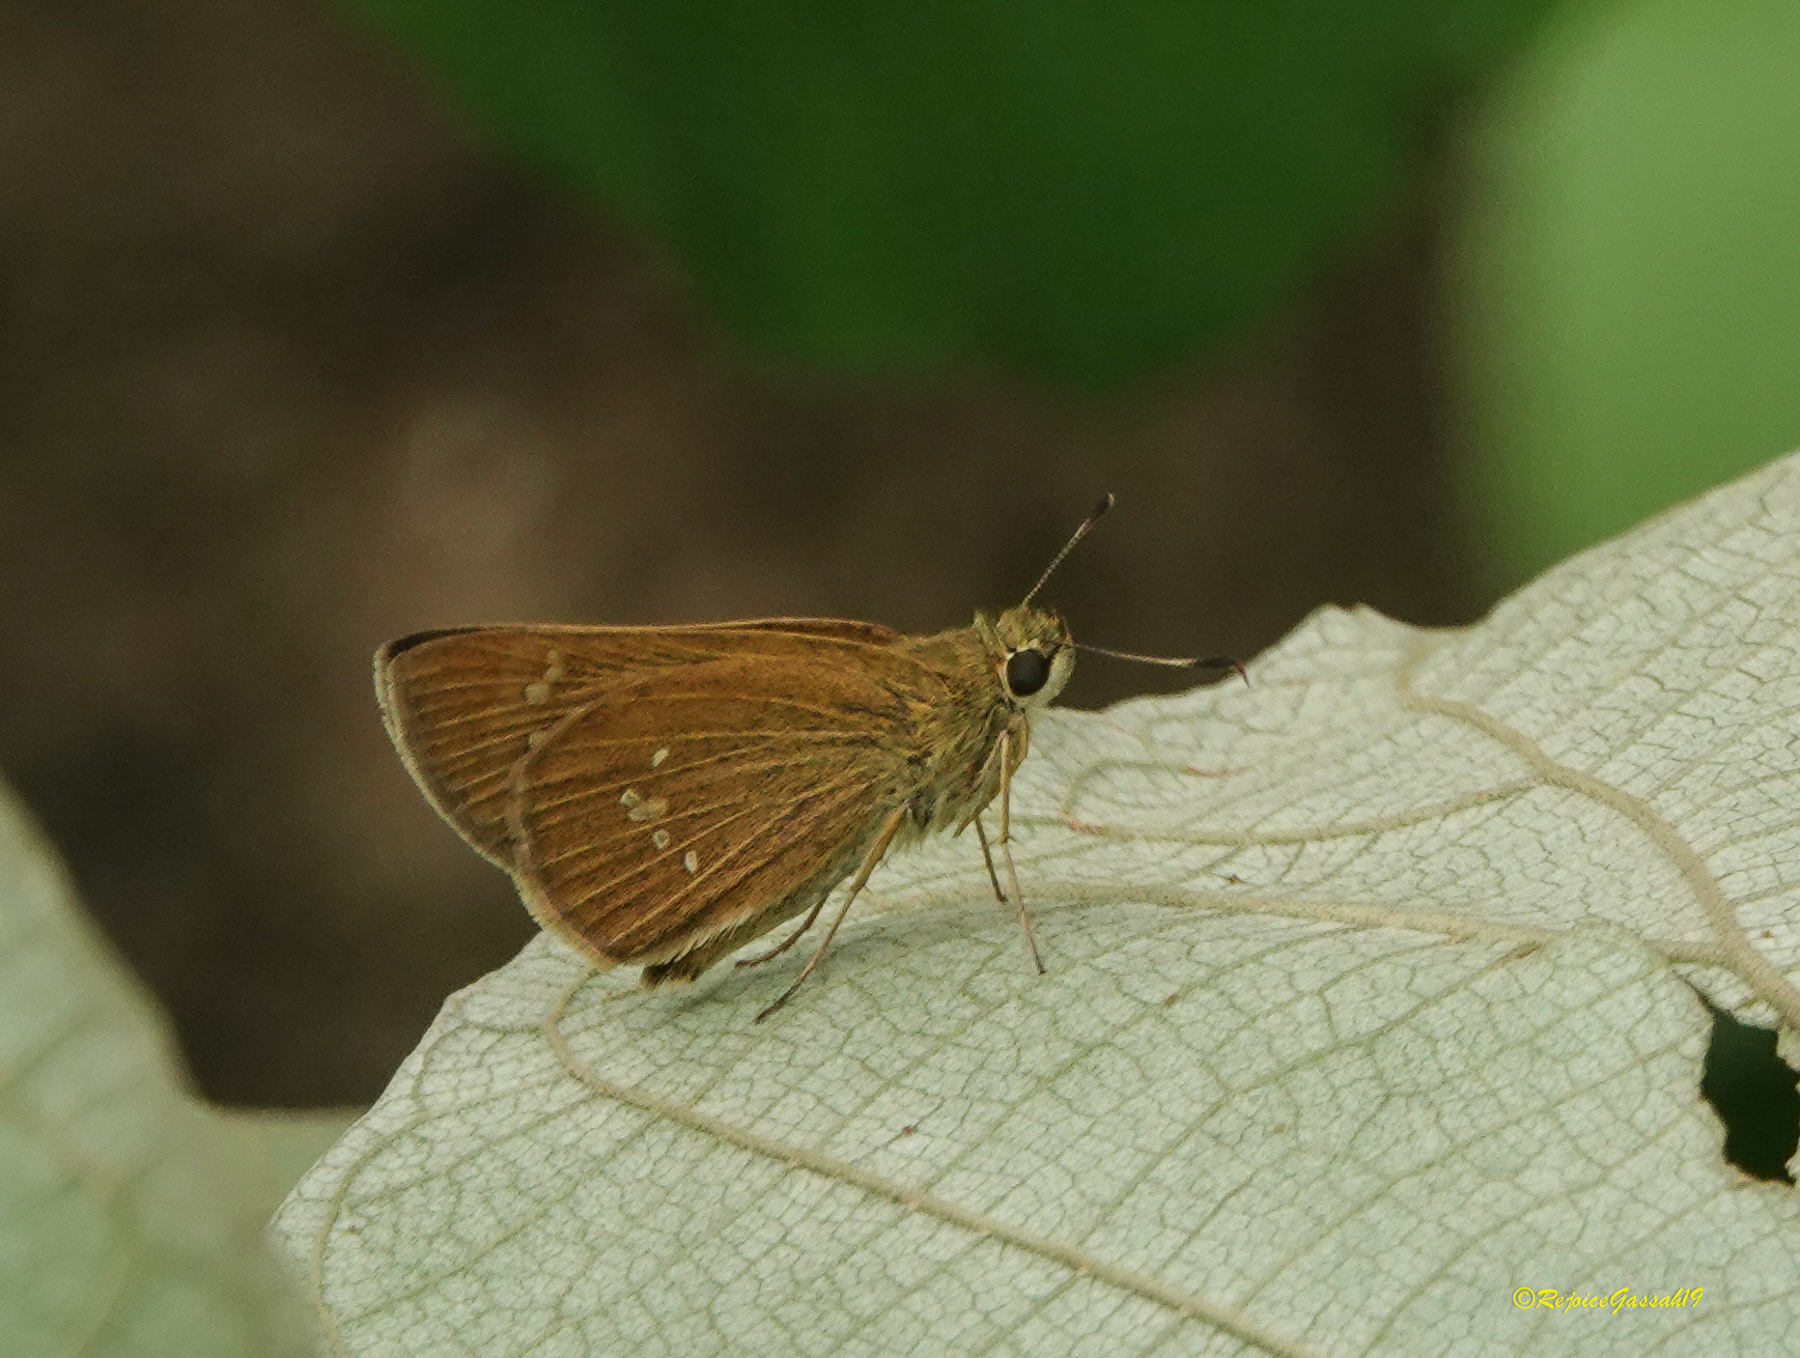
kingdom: Animalia
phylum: Arthropoda
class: Insecta
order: Lepidoptera
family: Hesperiidae
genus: Polytremis
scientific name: Polytremis lubricans
